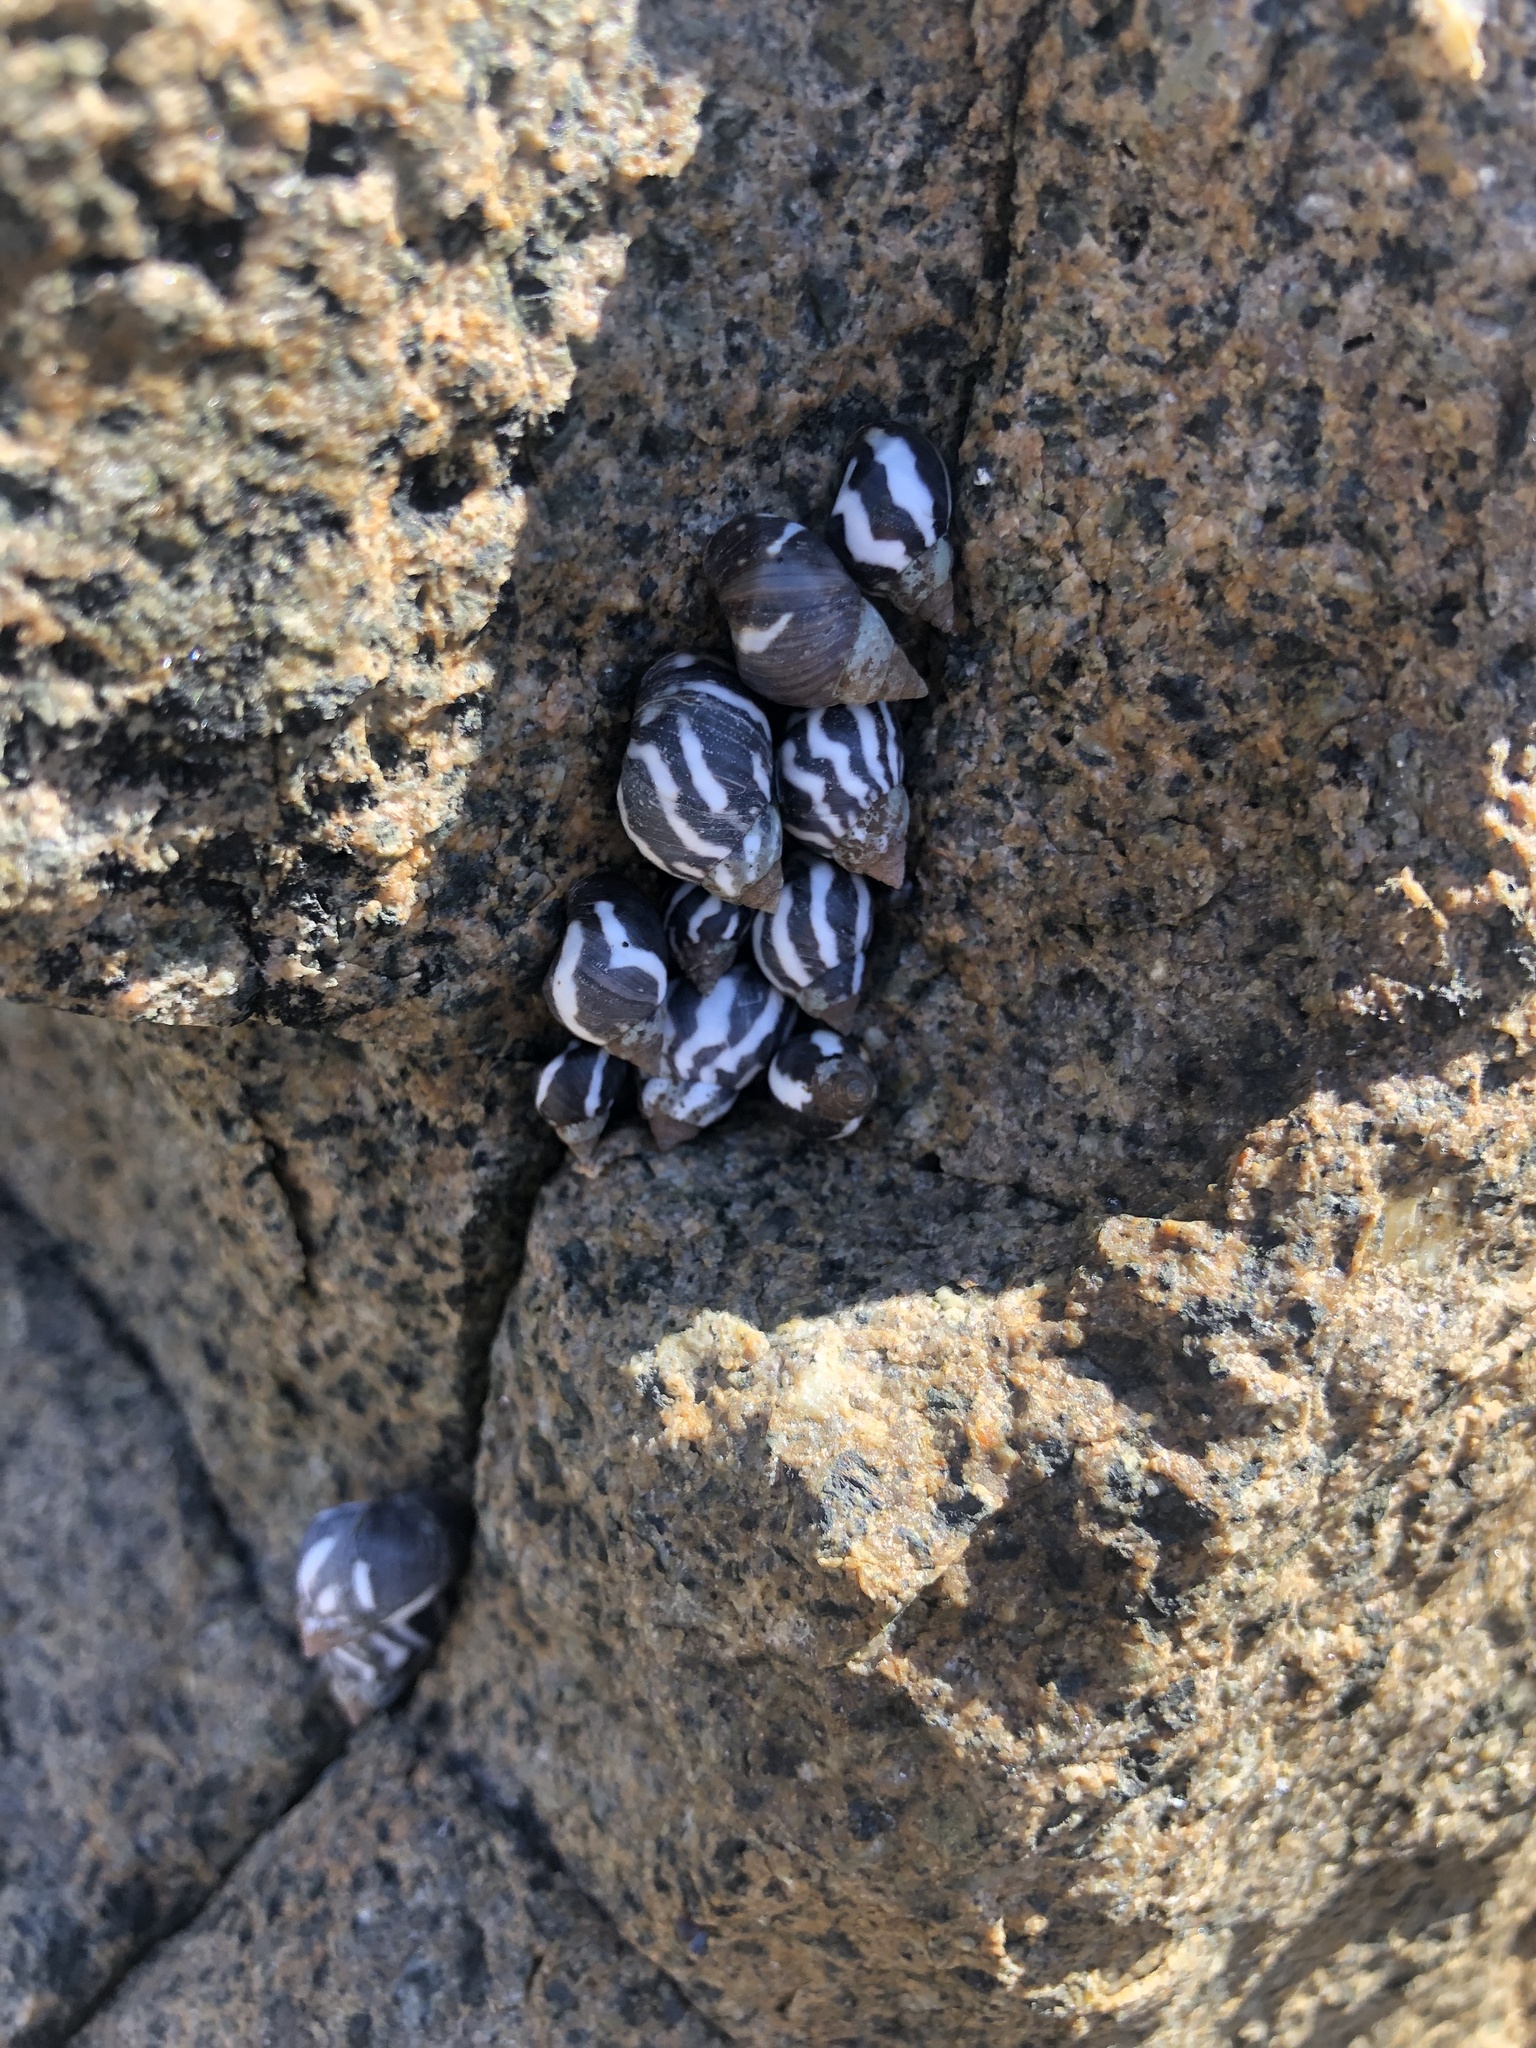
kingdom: Animalia
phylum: Mollusca
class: Gastropoda
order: Littorinimorpha
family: Littorinidae
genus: Echinolittorina
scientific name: Echinolittorina peruviana
